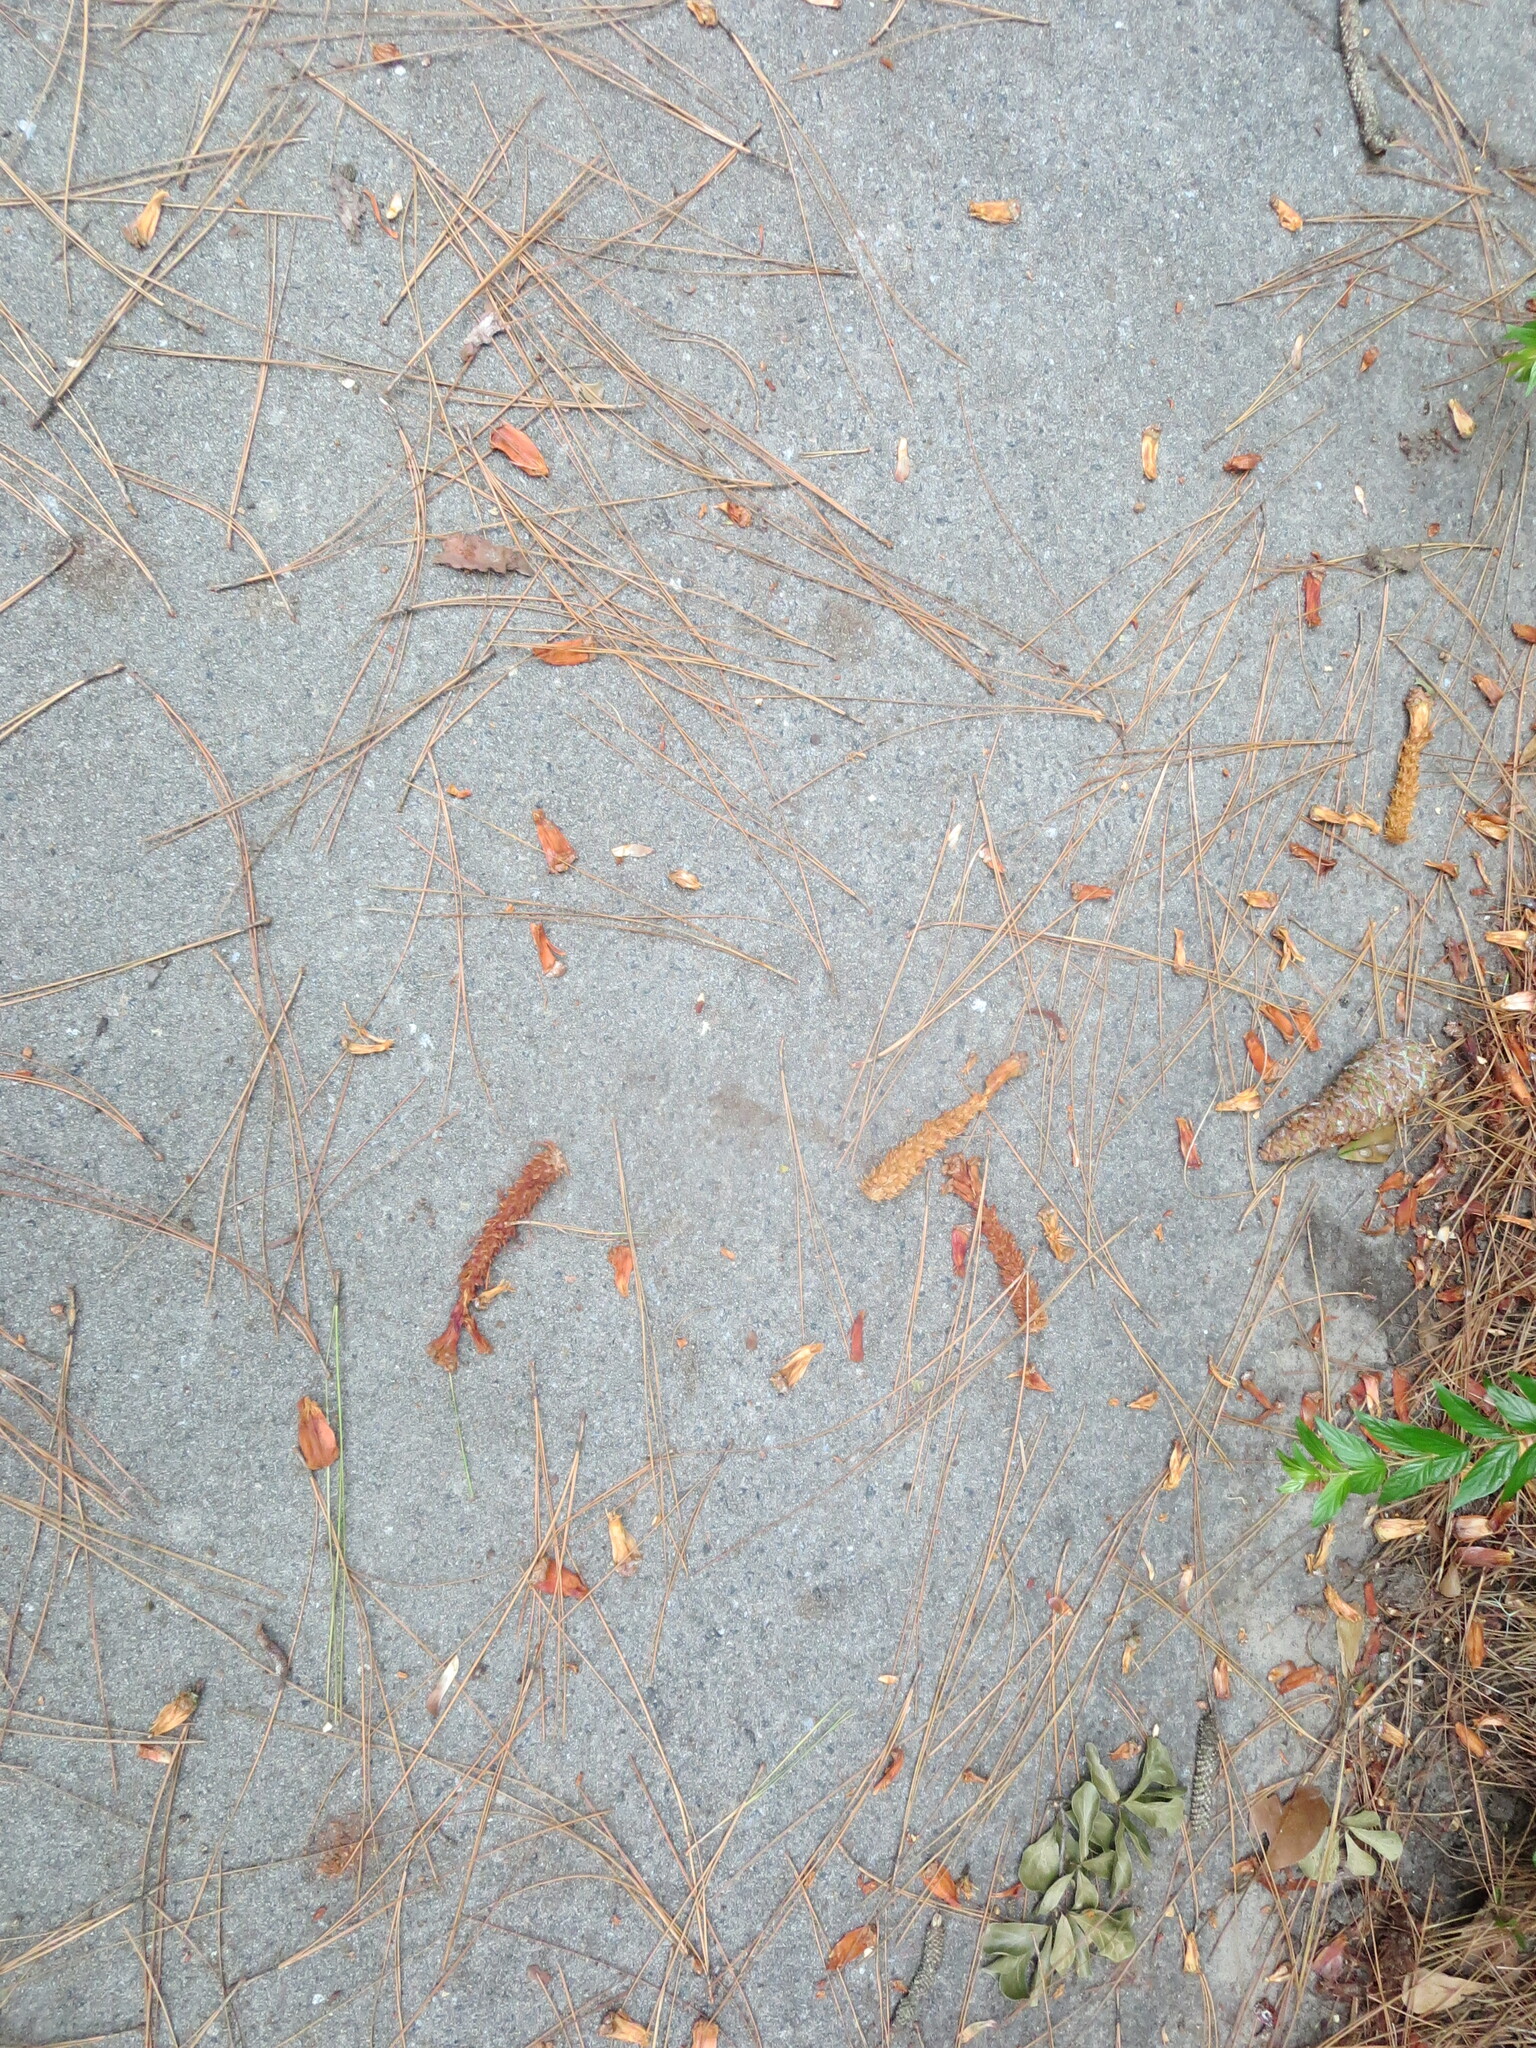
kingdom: Animalia
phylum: Chordata
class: Mammalia
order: Rodentia
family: Sciuridae
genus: Sciurus
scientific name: Sciurus carolinensis
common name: Eastern gray squirrel
